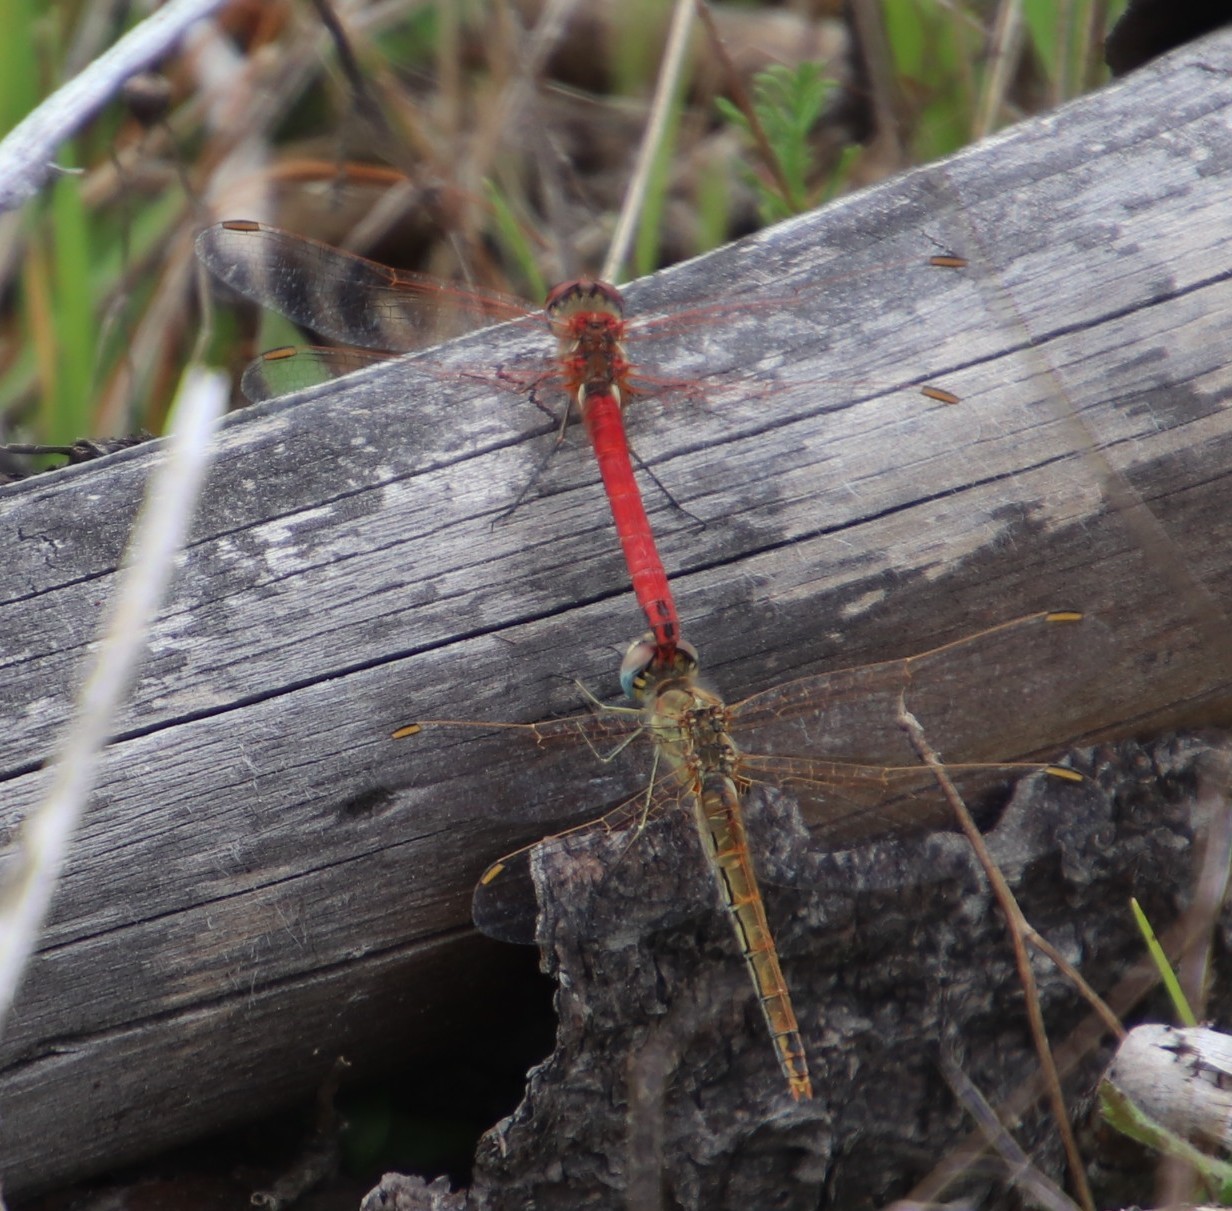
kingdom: Animalia
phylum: Arthropoda
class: Insecta
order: Odonata
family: Libellulidae
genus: Sympetrum
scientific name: Sympetrum fonscolombii
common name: Red-veined darter
